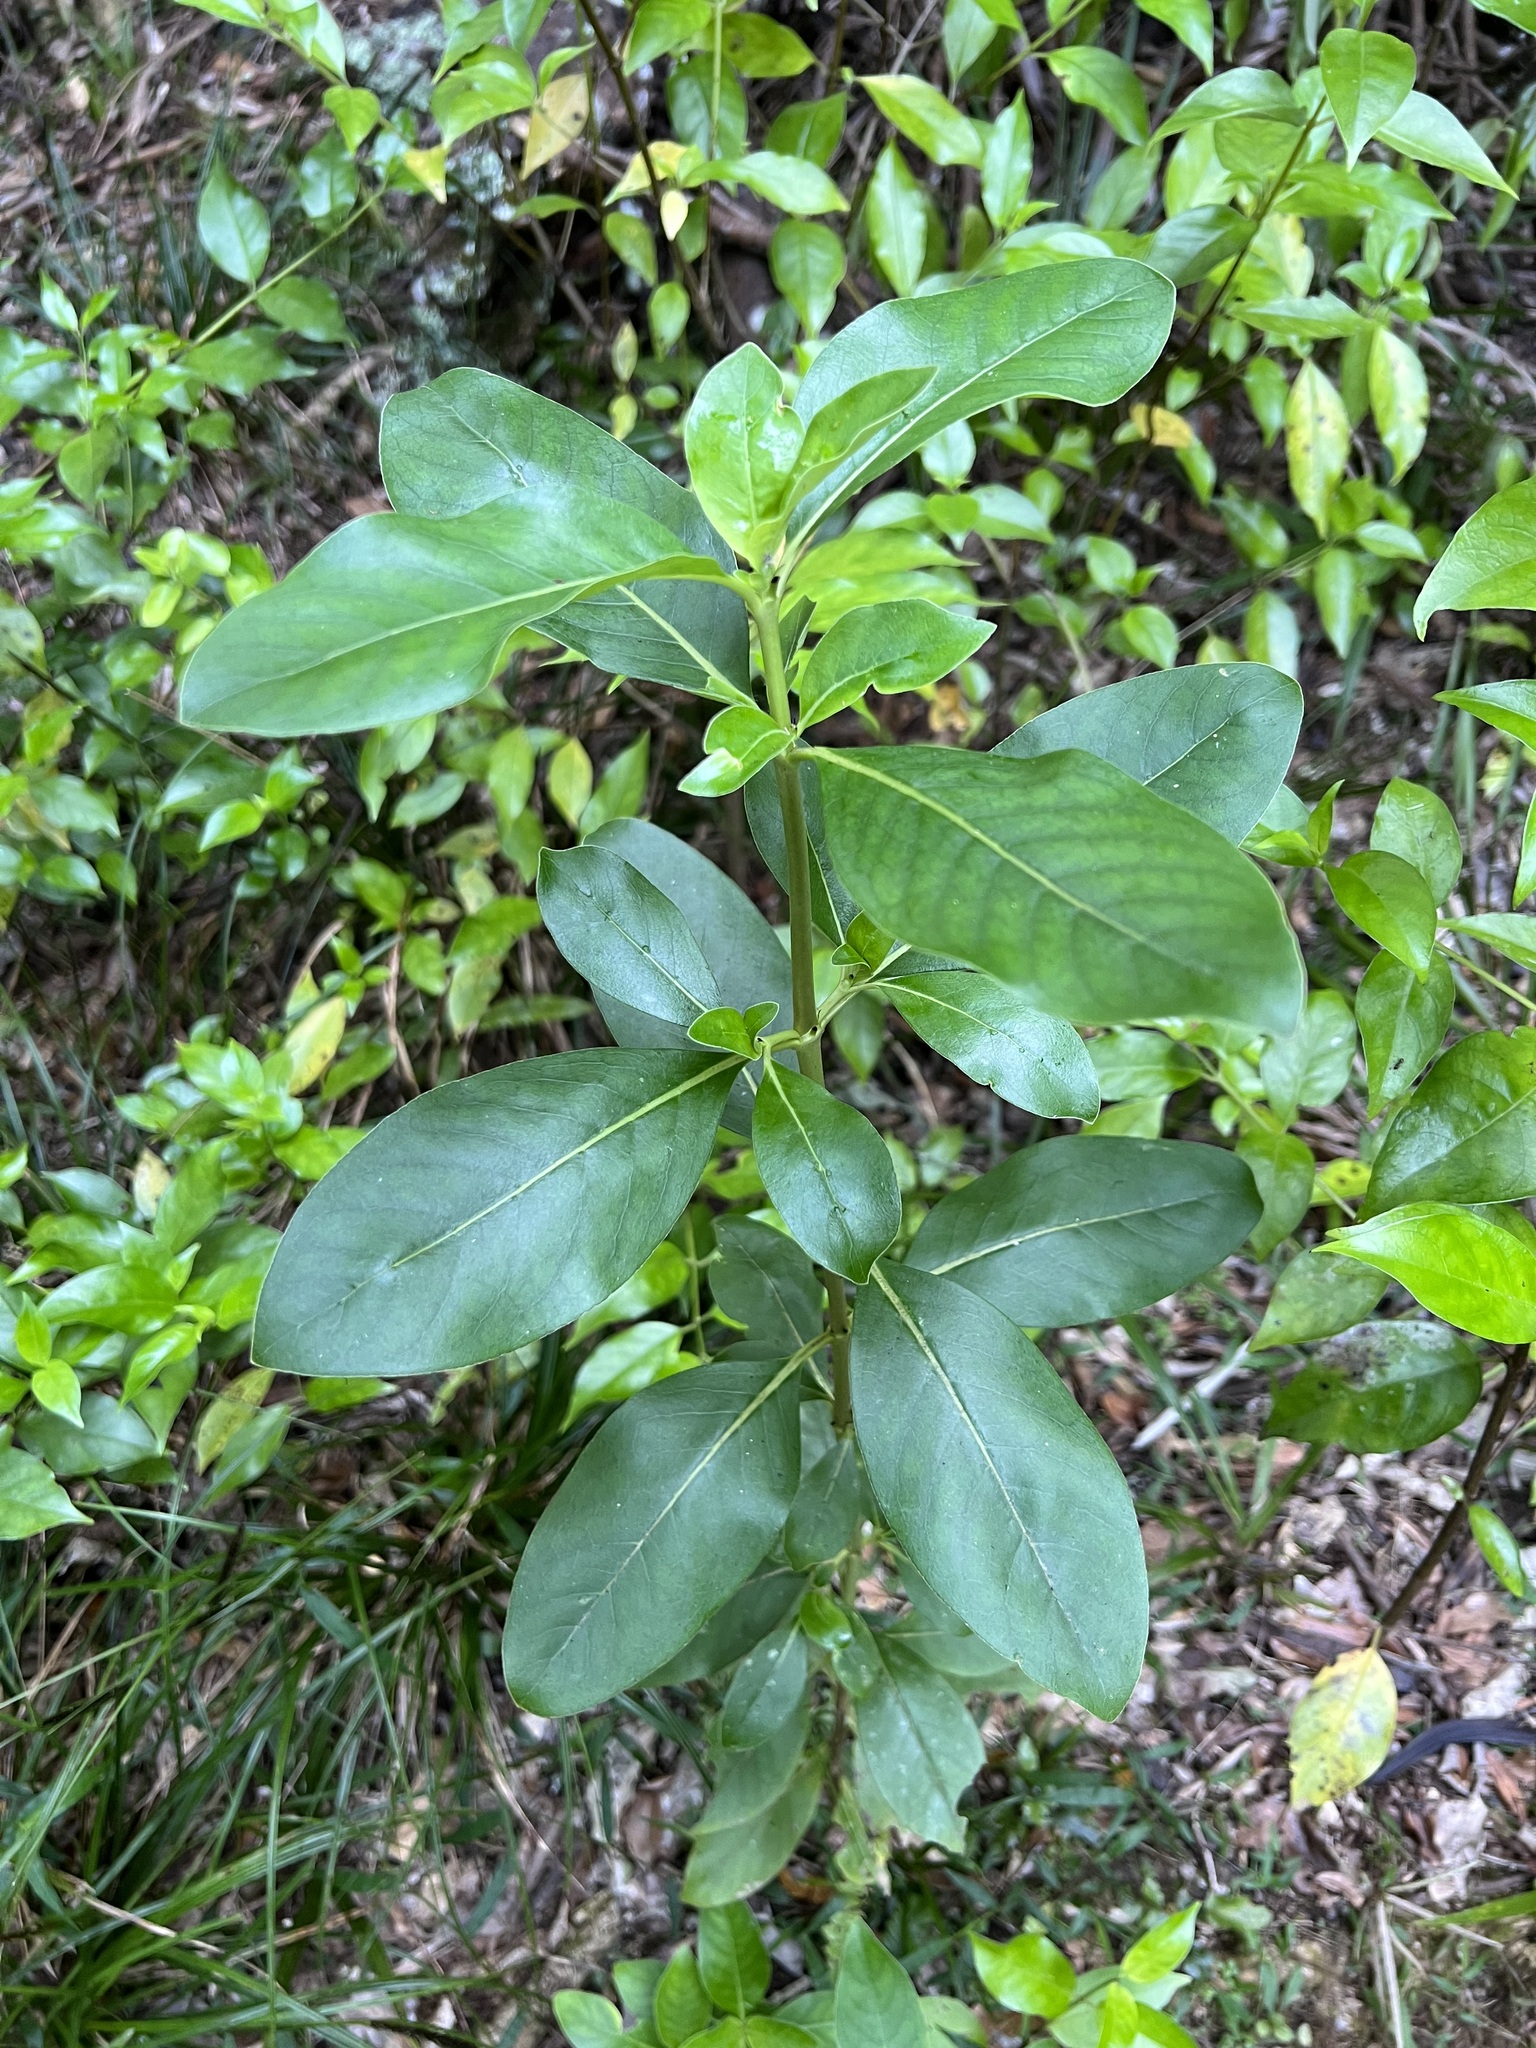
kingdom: Plantae
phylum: Tracheophyta
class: Magnoliopsida
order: Gentianales
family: Rubiaceae
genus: Coprosma
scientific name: Coprosma robusta
